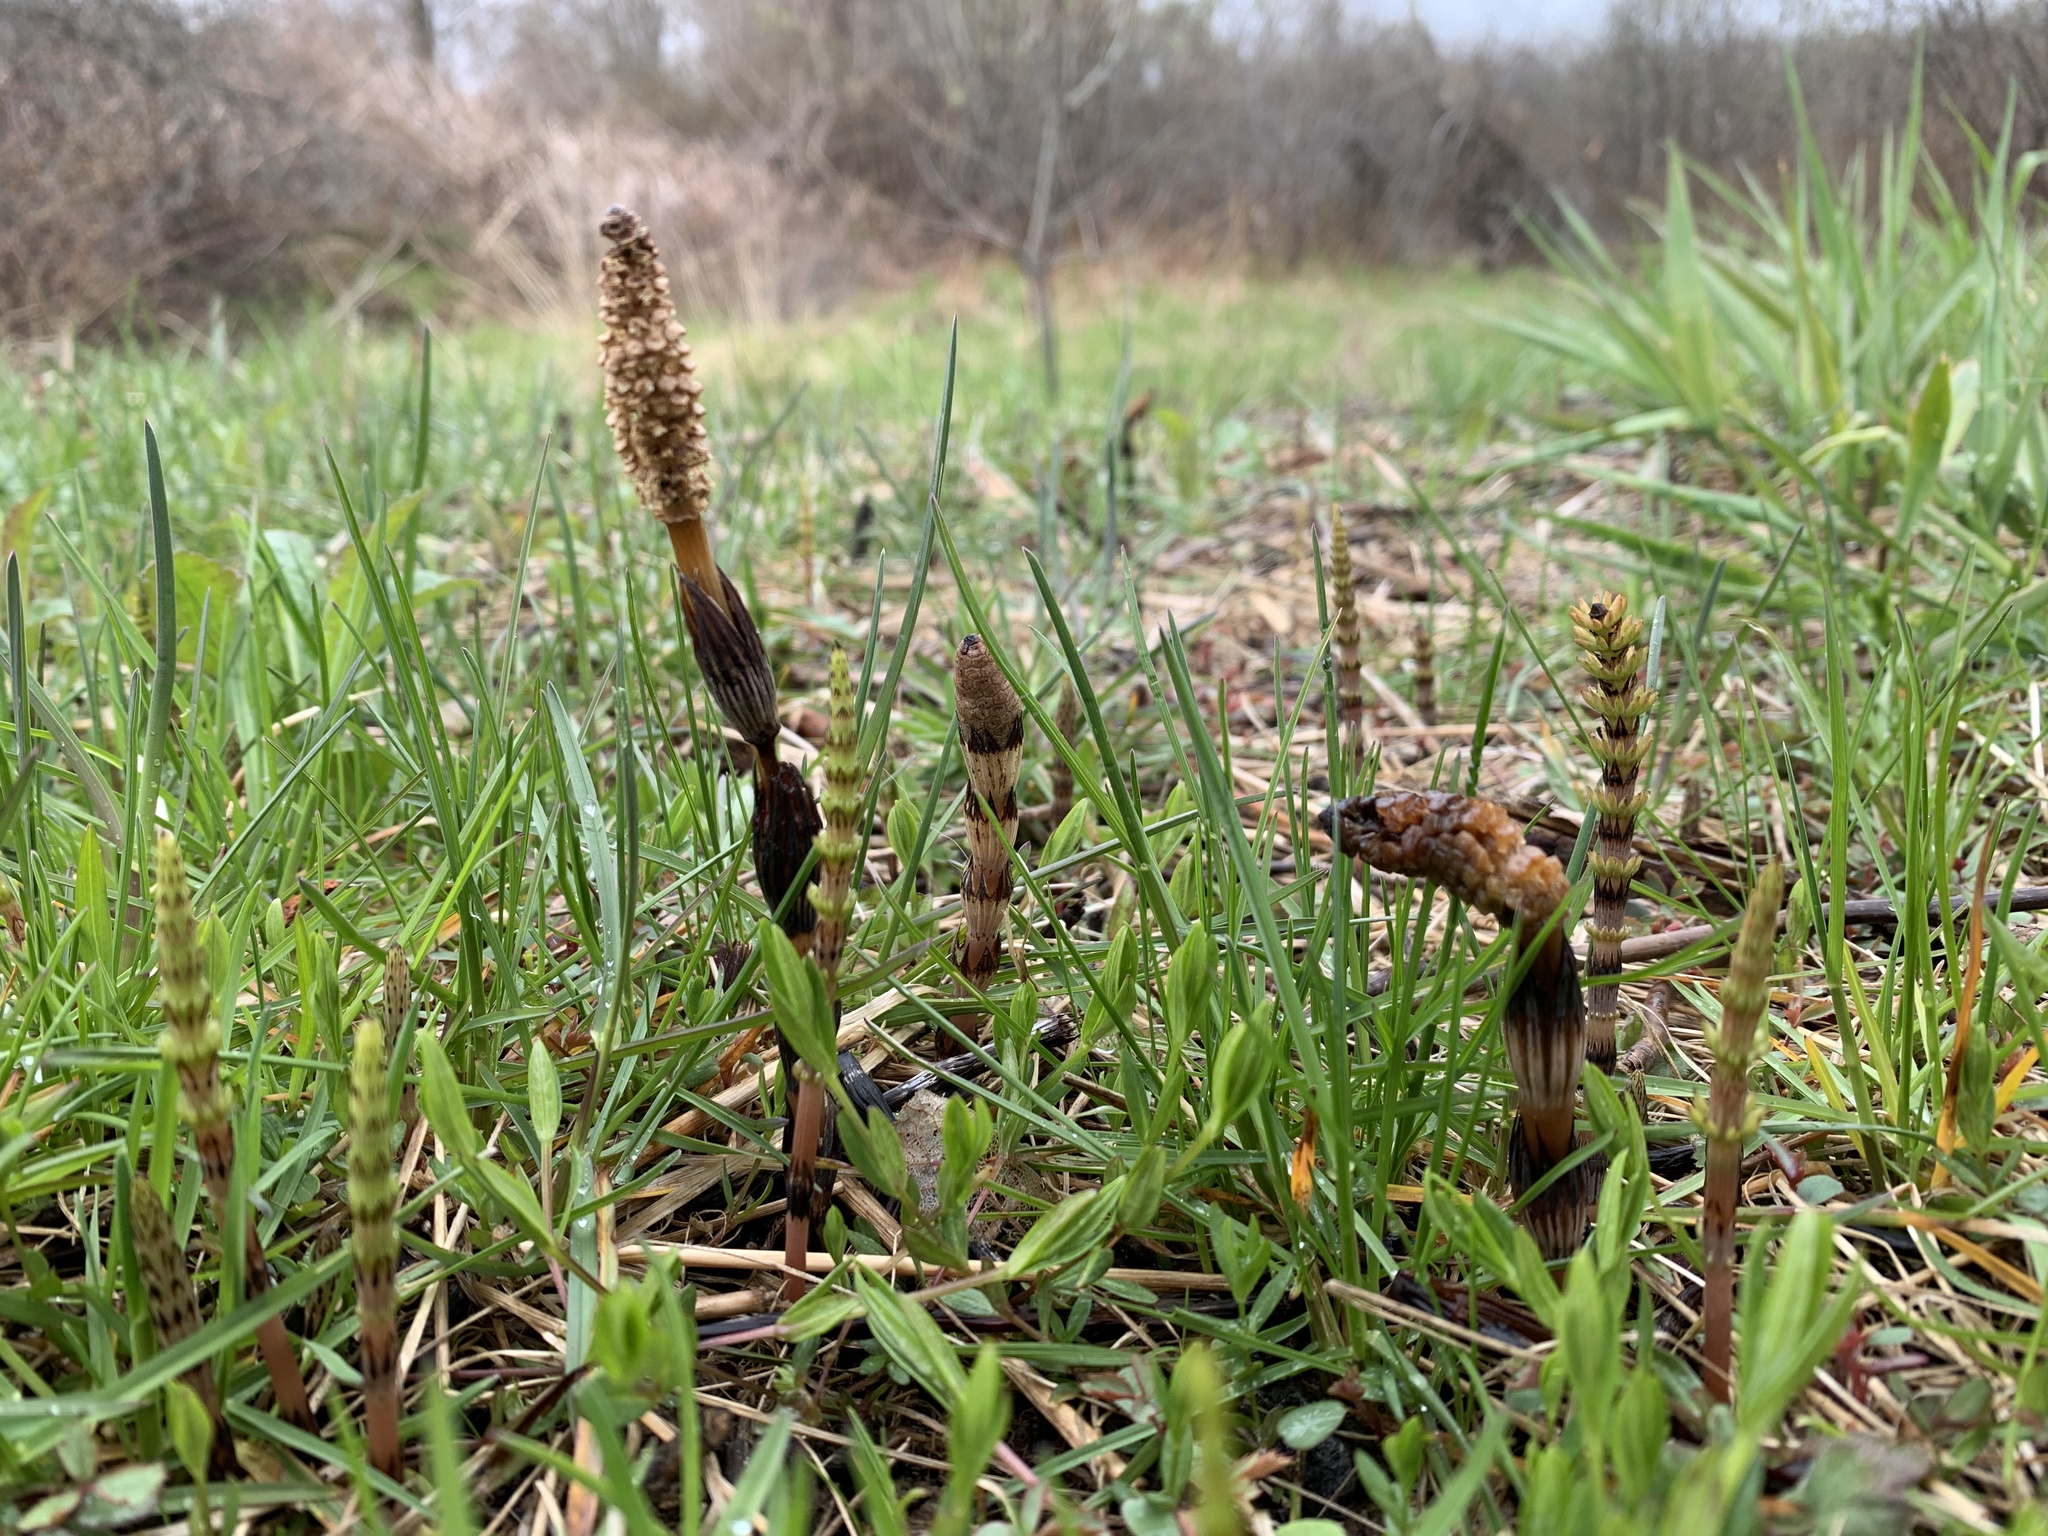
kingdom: Plantae
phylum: Tracheophyta
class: Polypodiopsida
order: Equisetales
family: Equisetaceae
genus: Equisetum
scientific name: Equisetum arvense
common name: Field horsetail
